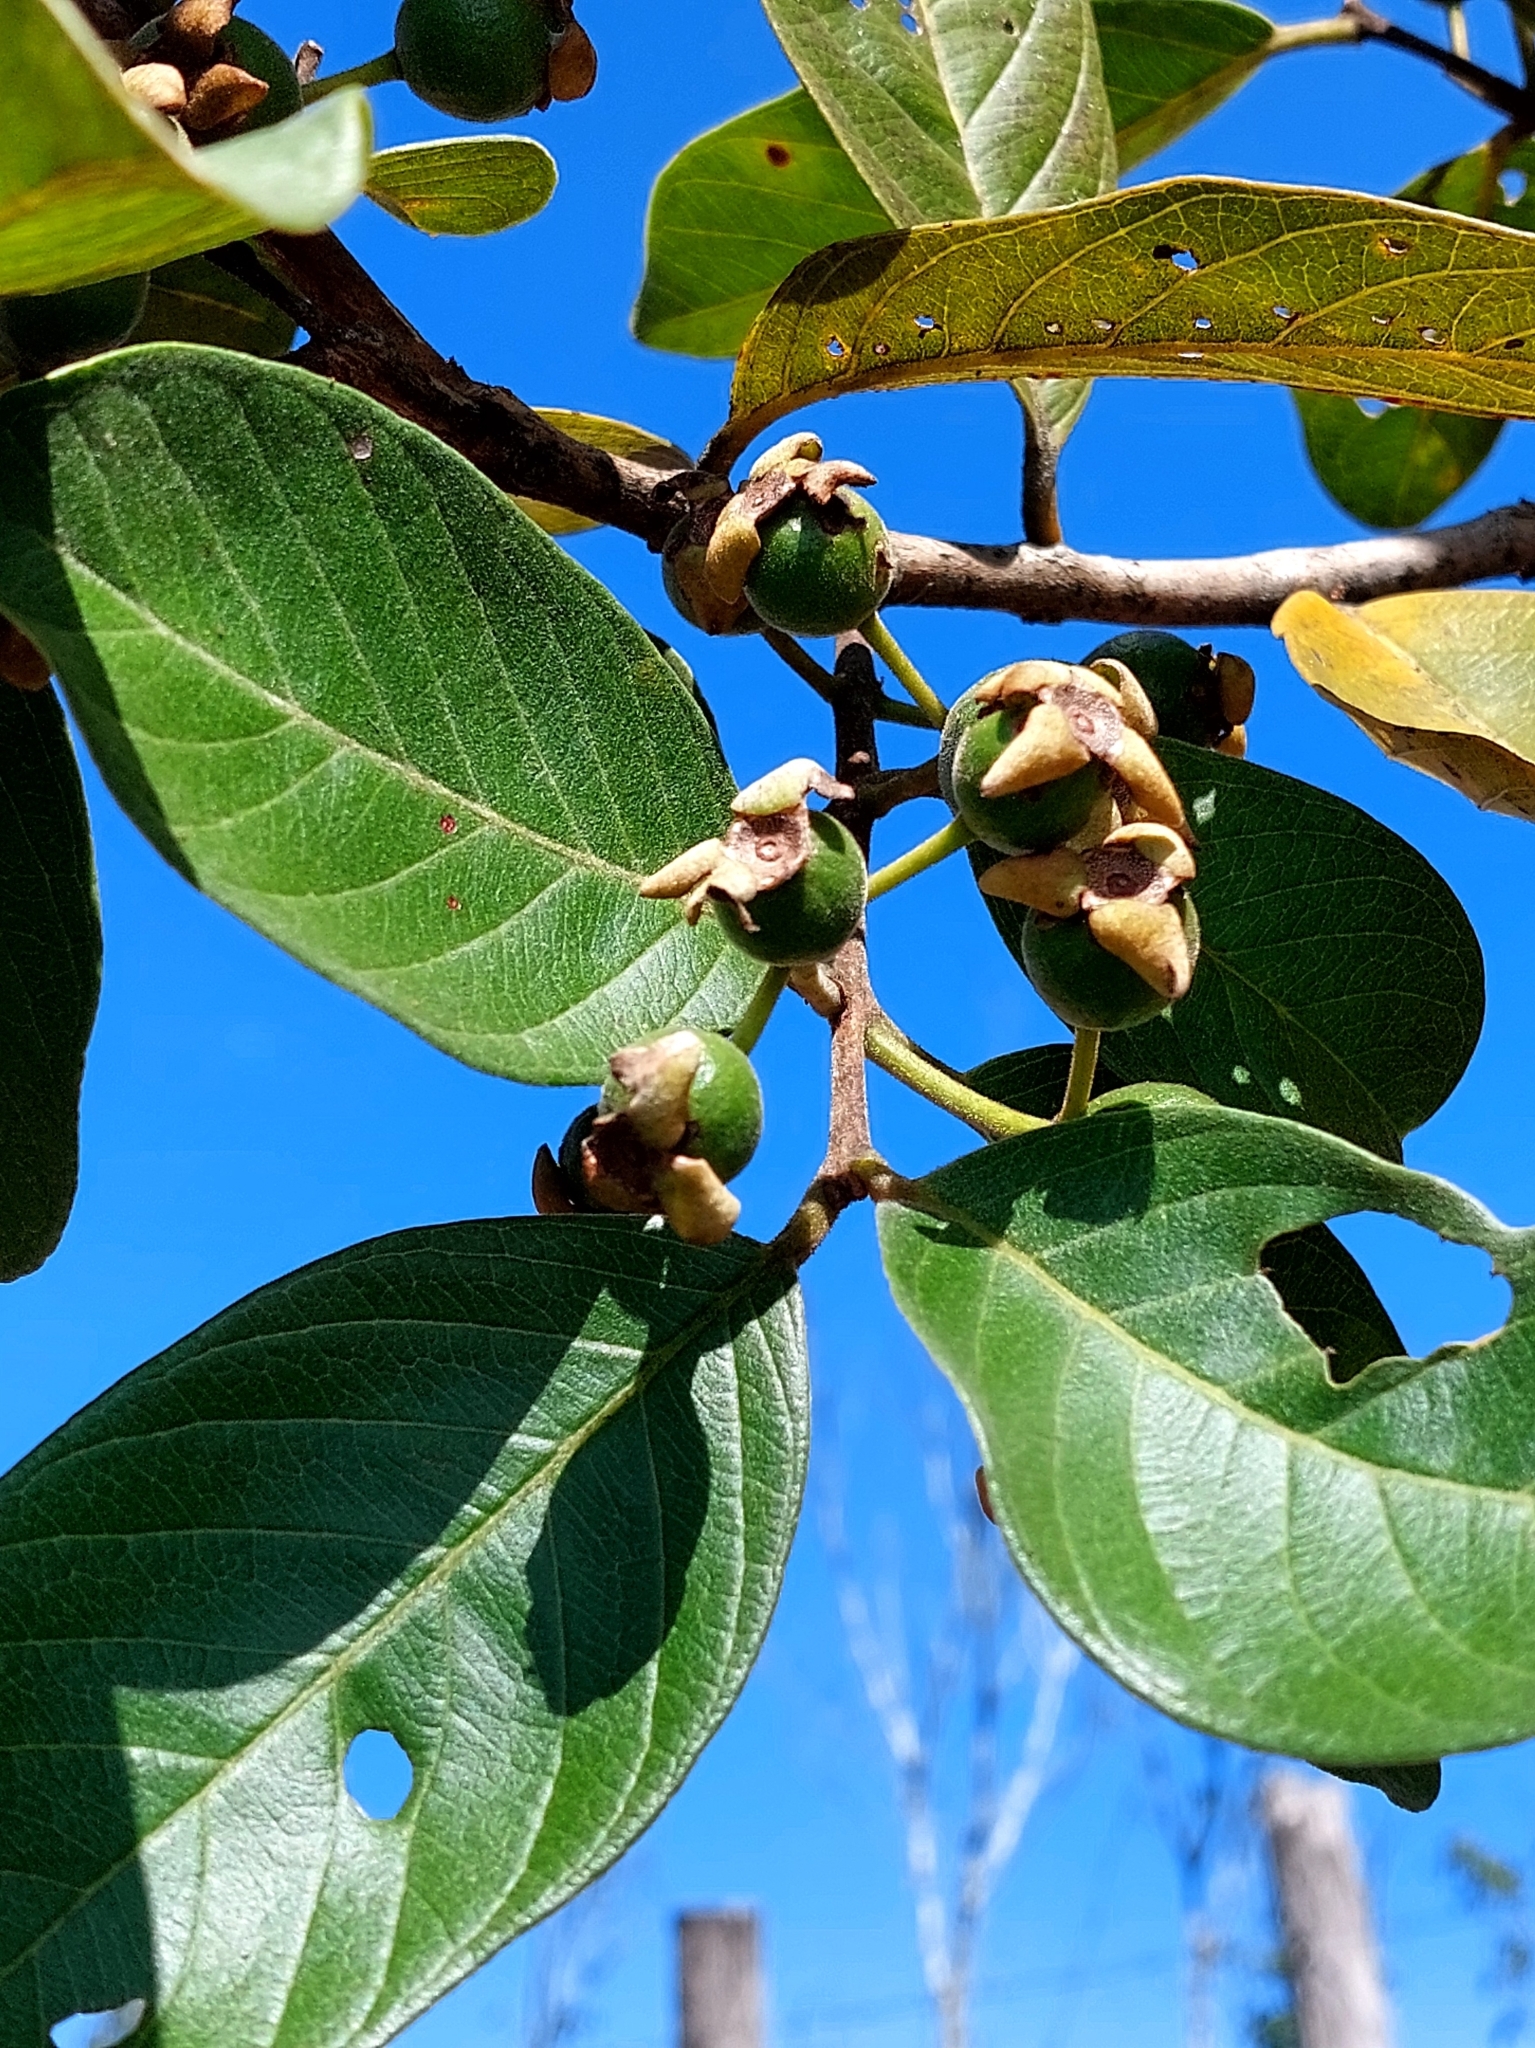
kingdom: Plantae
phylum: Tracheophyta
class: Magnoliopsida
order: Myrtales
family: Myrtaceae
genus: Psidium
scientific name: Psidium guineense
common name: Brazilian guava
